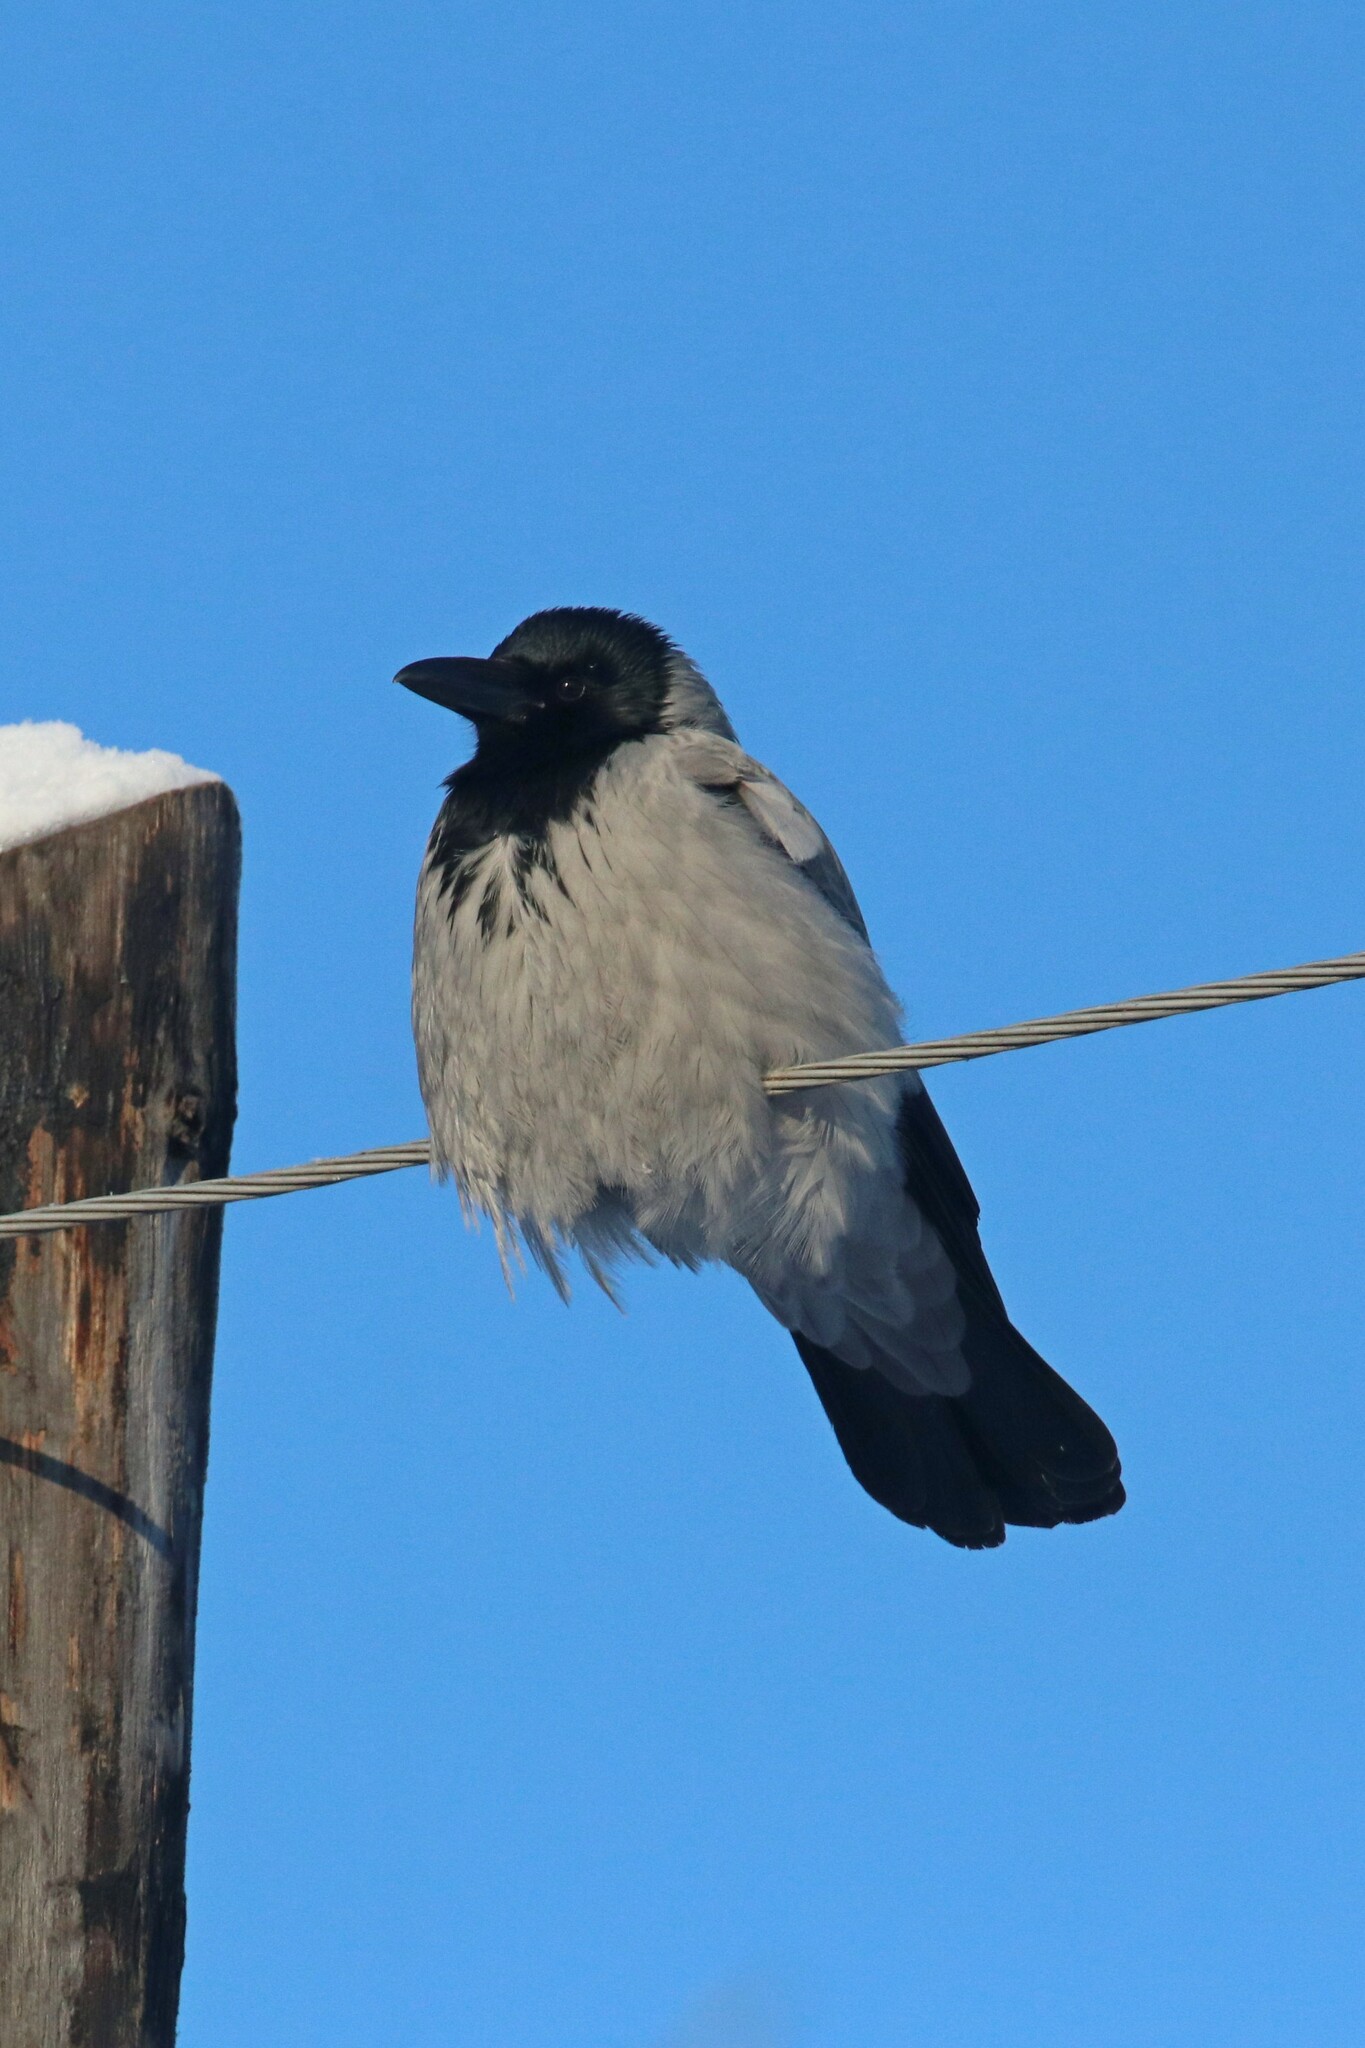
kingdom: Animalia
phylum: Chordata
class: Aves
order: Passeriformes
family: Corvidae
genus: Corvus
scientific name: Corvus cornix
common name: Hooded crow
